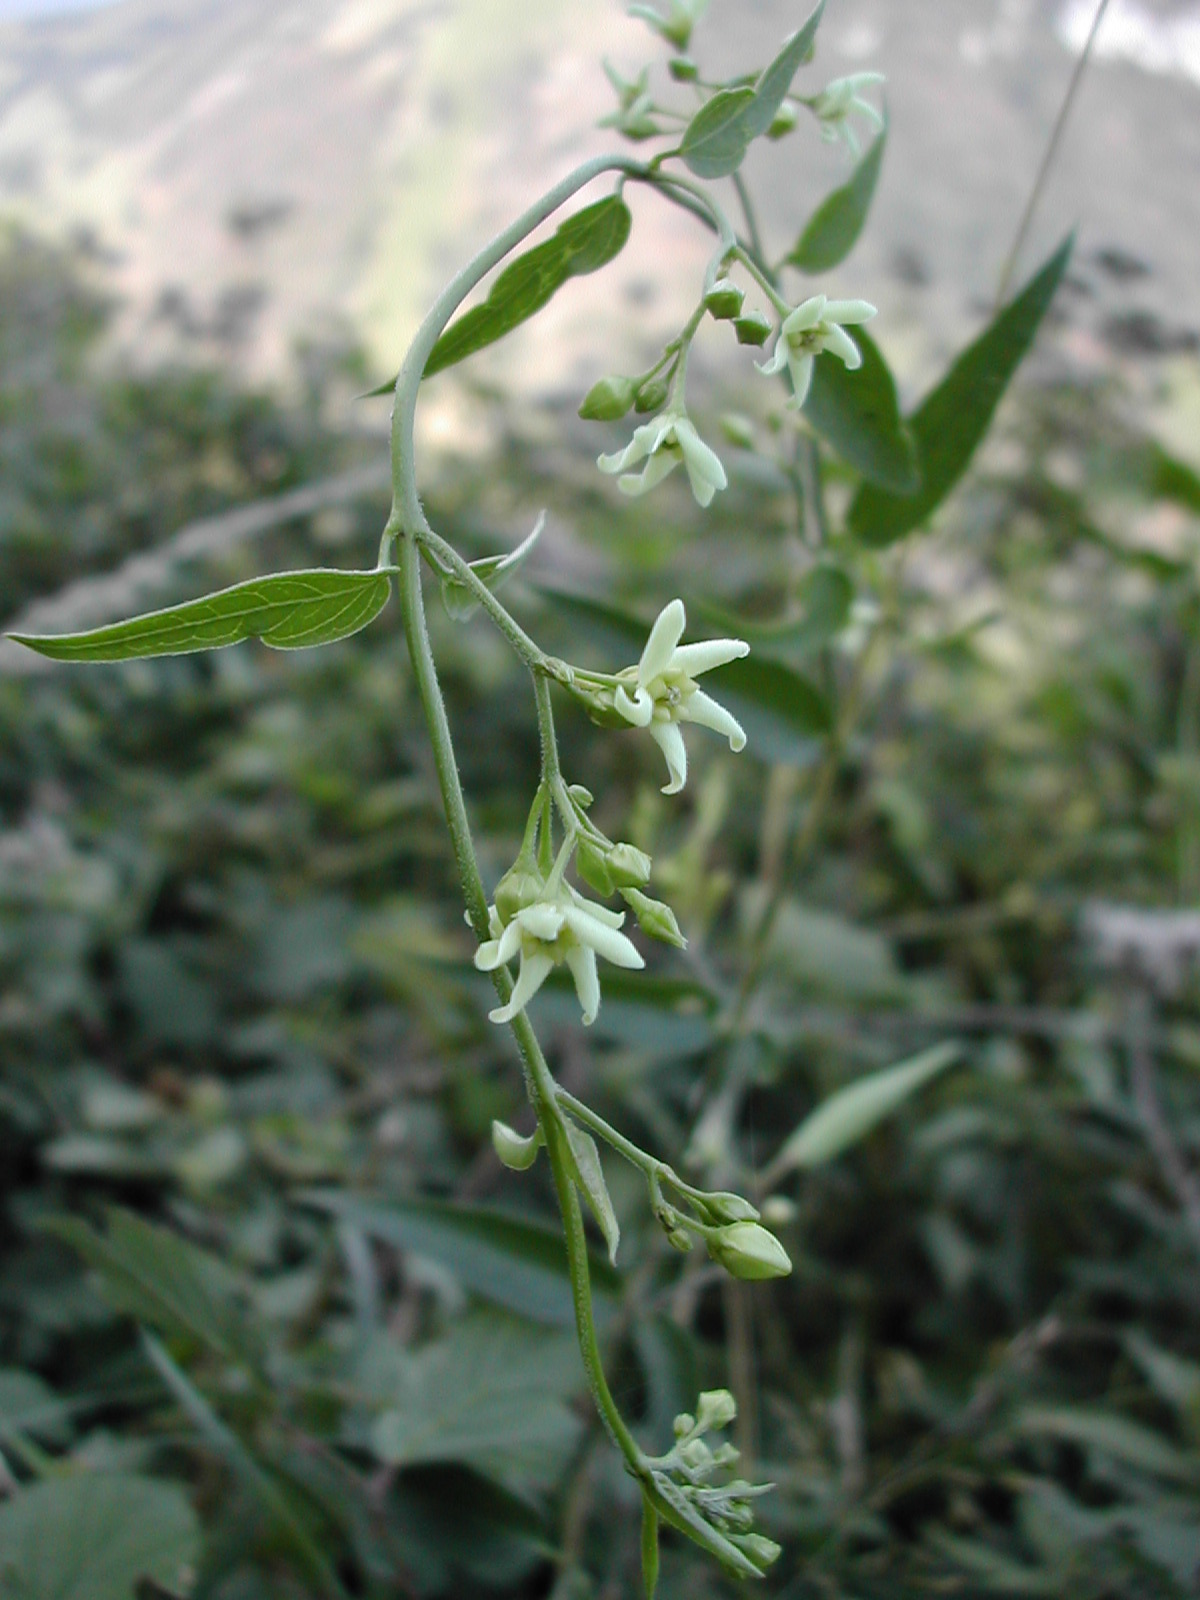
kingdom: Plantae
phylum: Tracheophyta
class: Magnoliopsida
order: Gentianales
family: Apocynaceae
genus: Vincetoxicum
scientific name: Vincetoxicum hirundinaria
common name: White swallowwort
